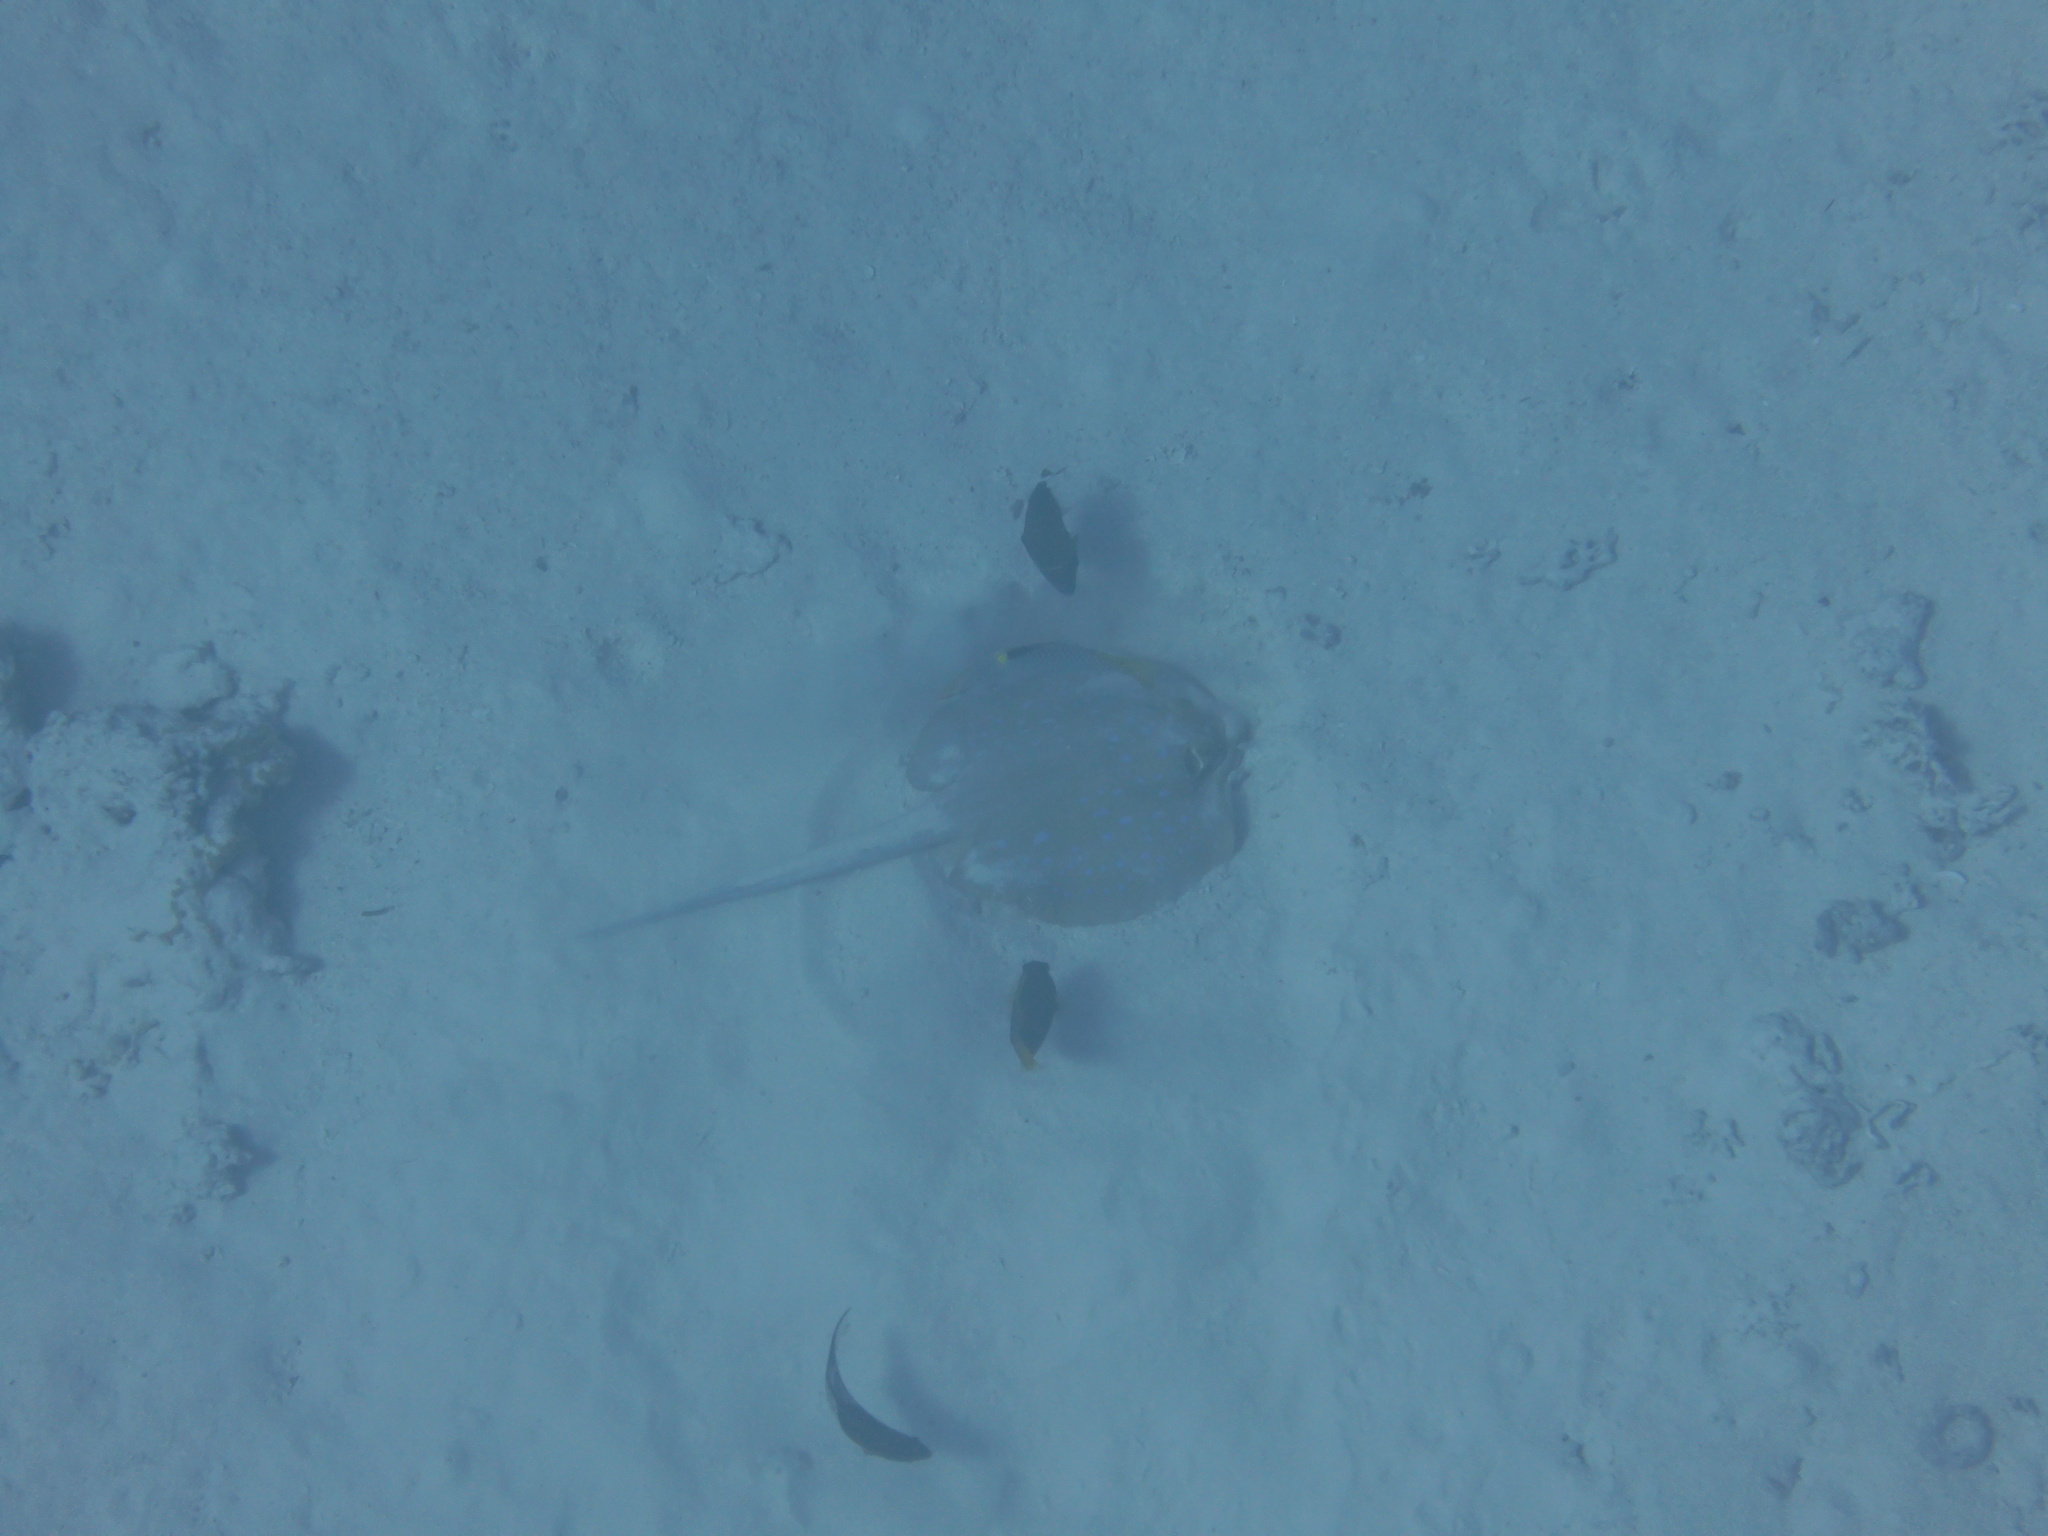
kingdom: Animalia
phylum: Chordata
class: Elasmobranchii
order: Myliobatiformes
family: Dasyatidae
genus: Taeniura
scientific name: Taeniura lymma
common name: Bluespotted ribbontail ray
